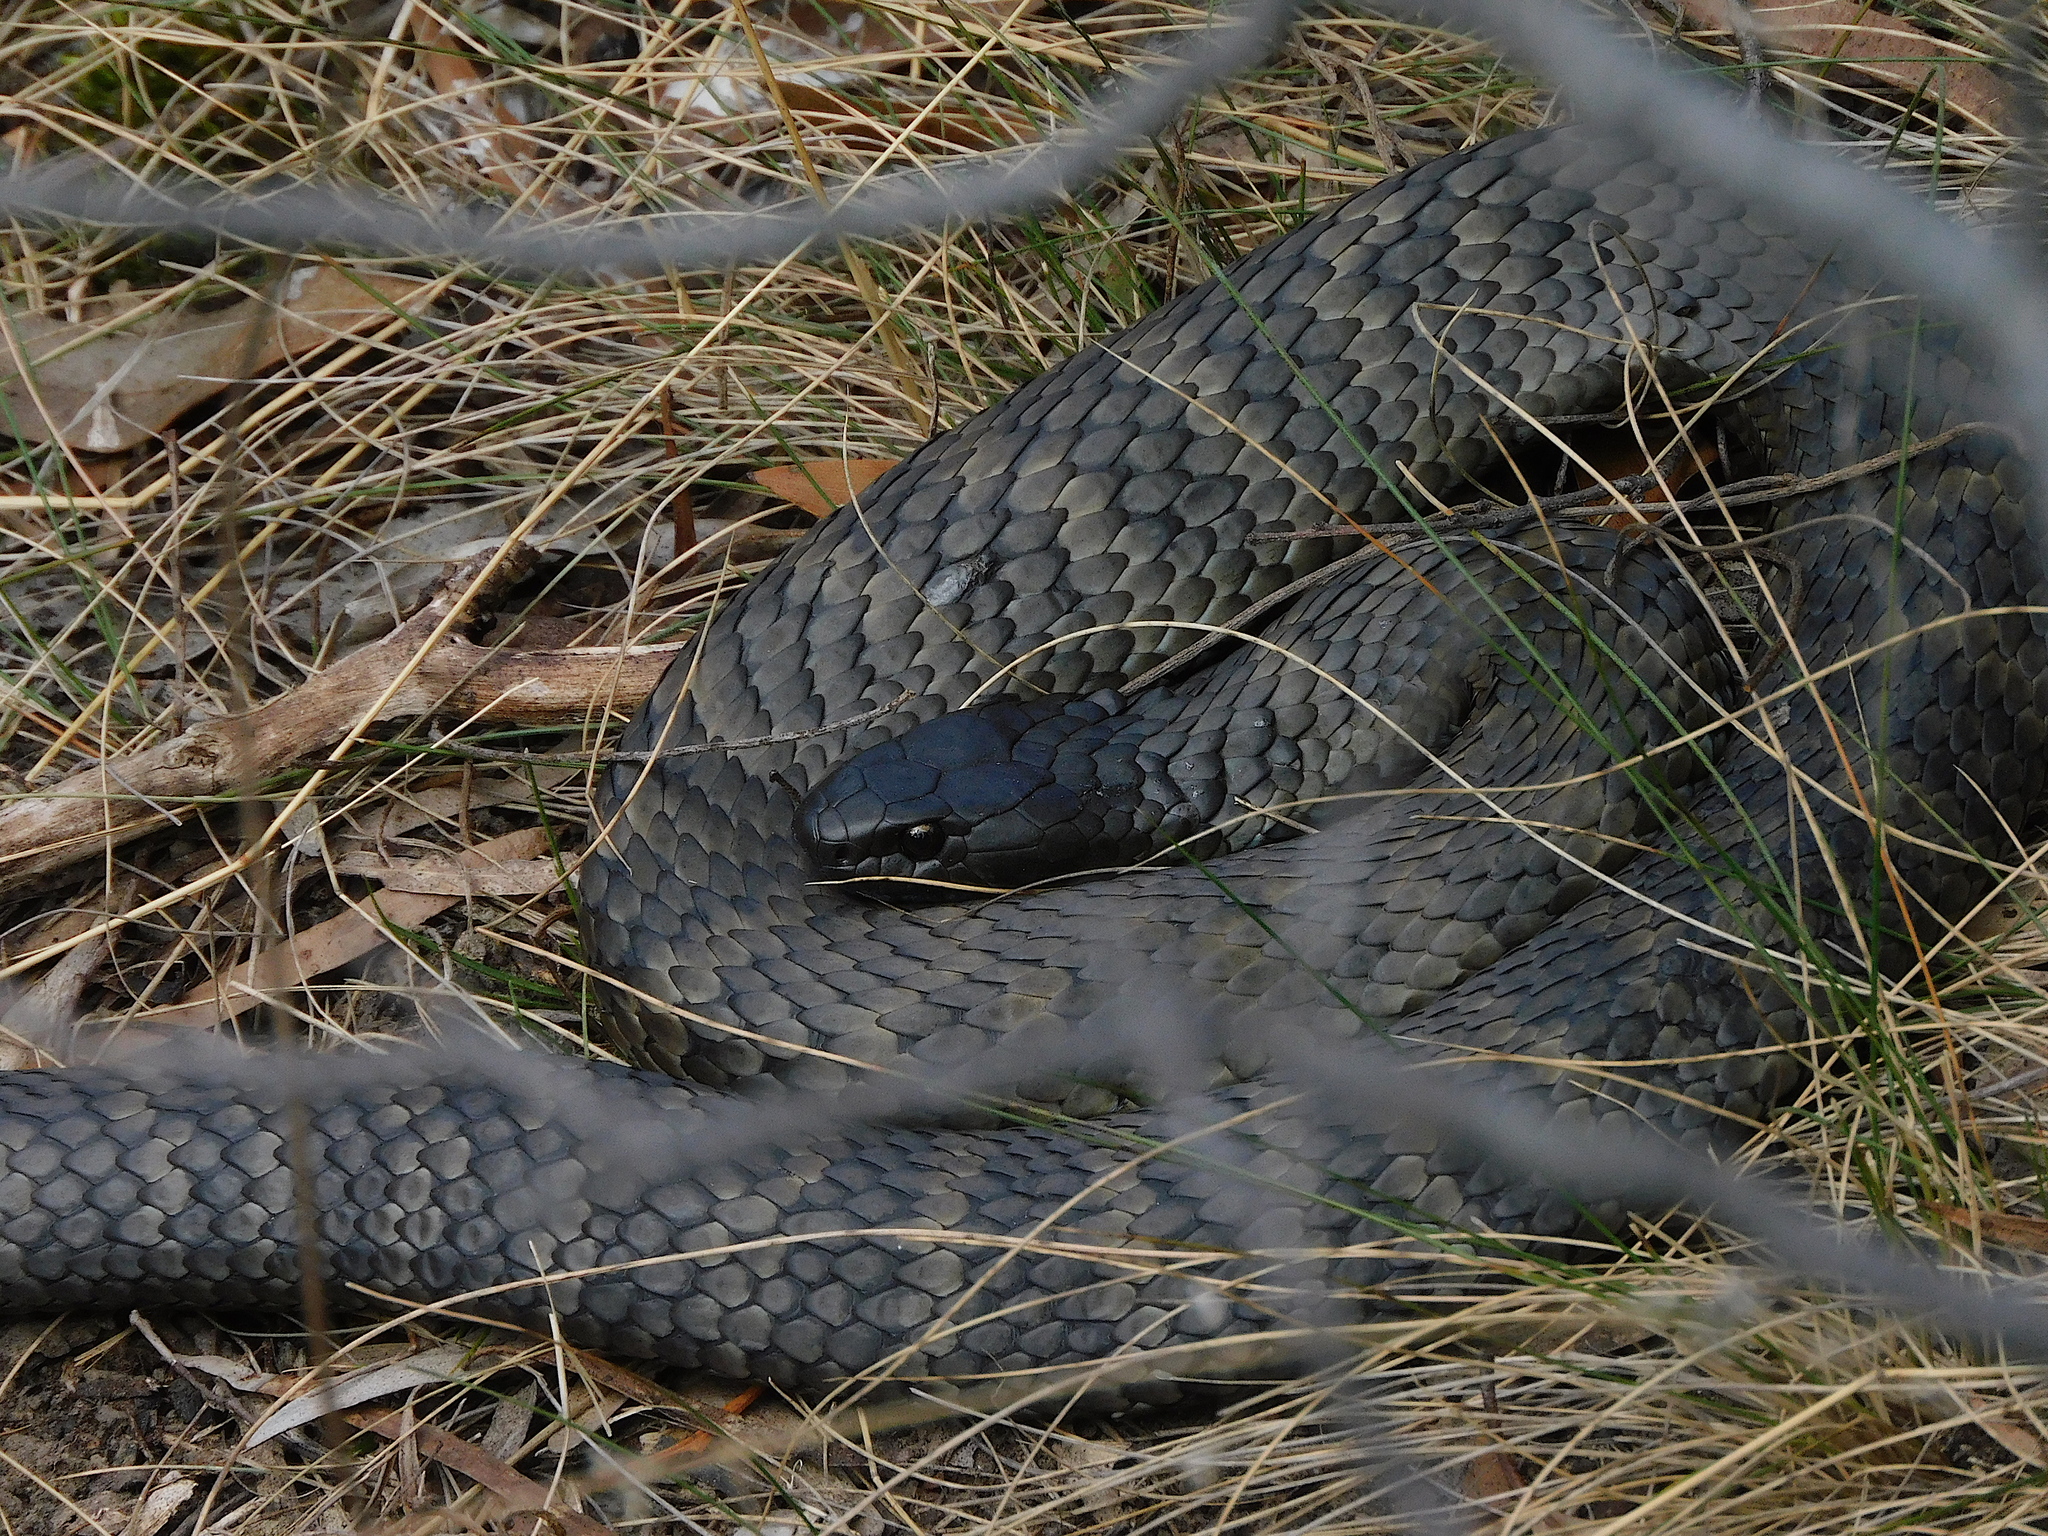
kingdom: Animalia
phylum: Chordata
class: Squamata
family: Elapidae
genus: Notechis
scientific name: Notechis scutatus
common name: Mainland tiger snake
